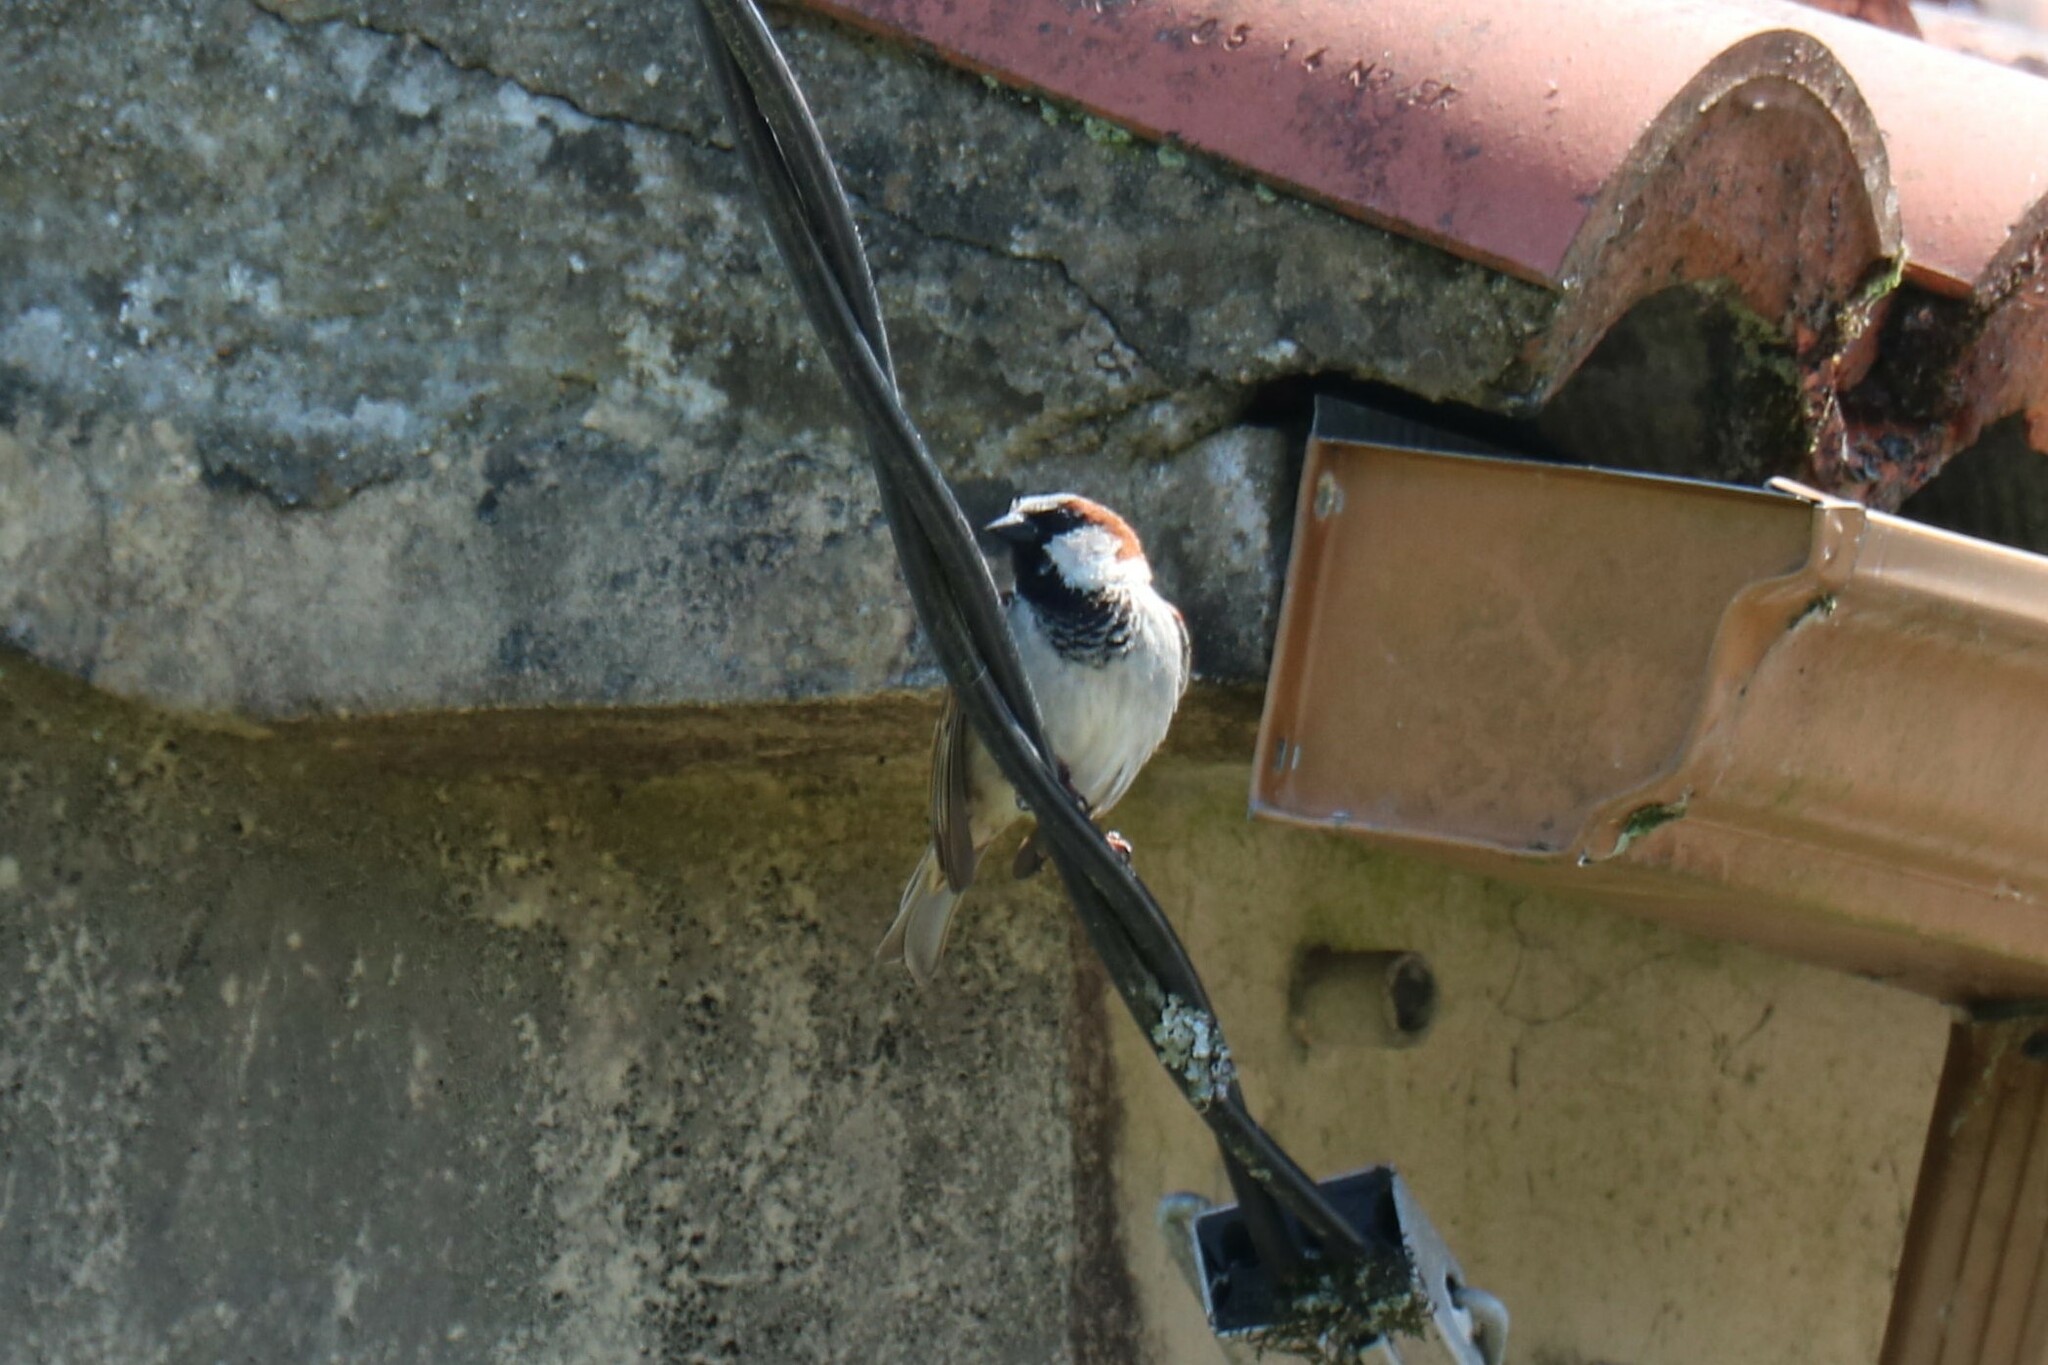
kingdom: Animalia
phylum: Chordata
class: Aves
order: Passeriformes
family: Passeridae
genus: Passer
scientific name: Passer domesticus
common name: House sparrow
